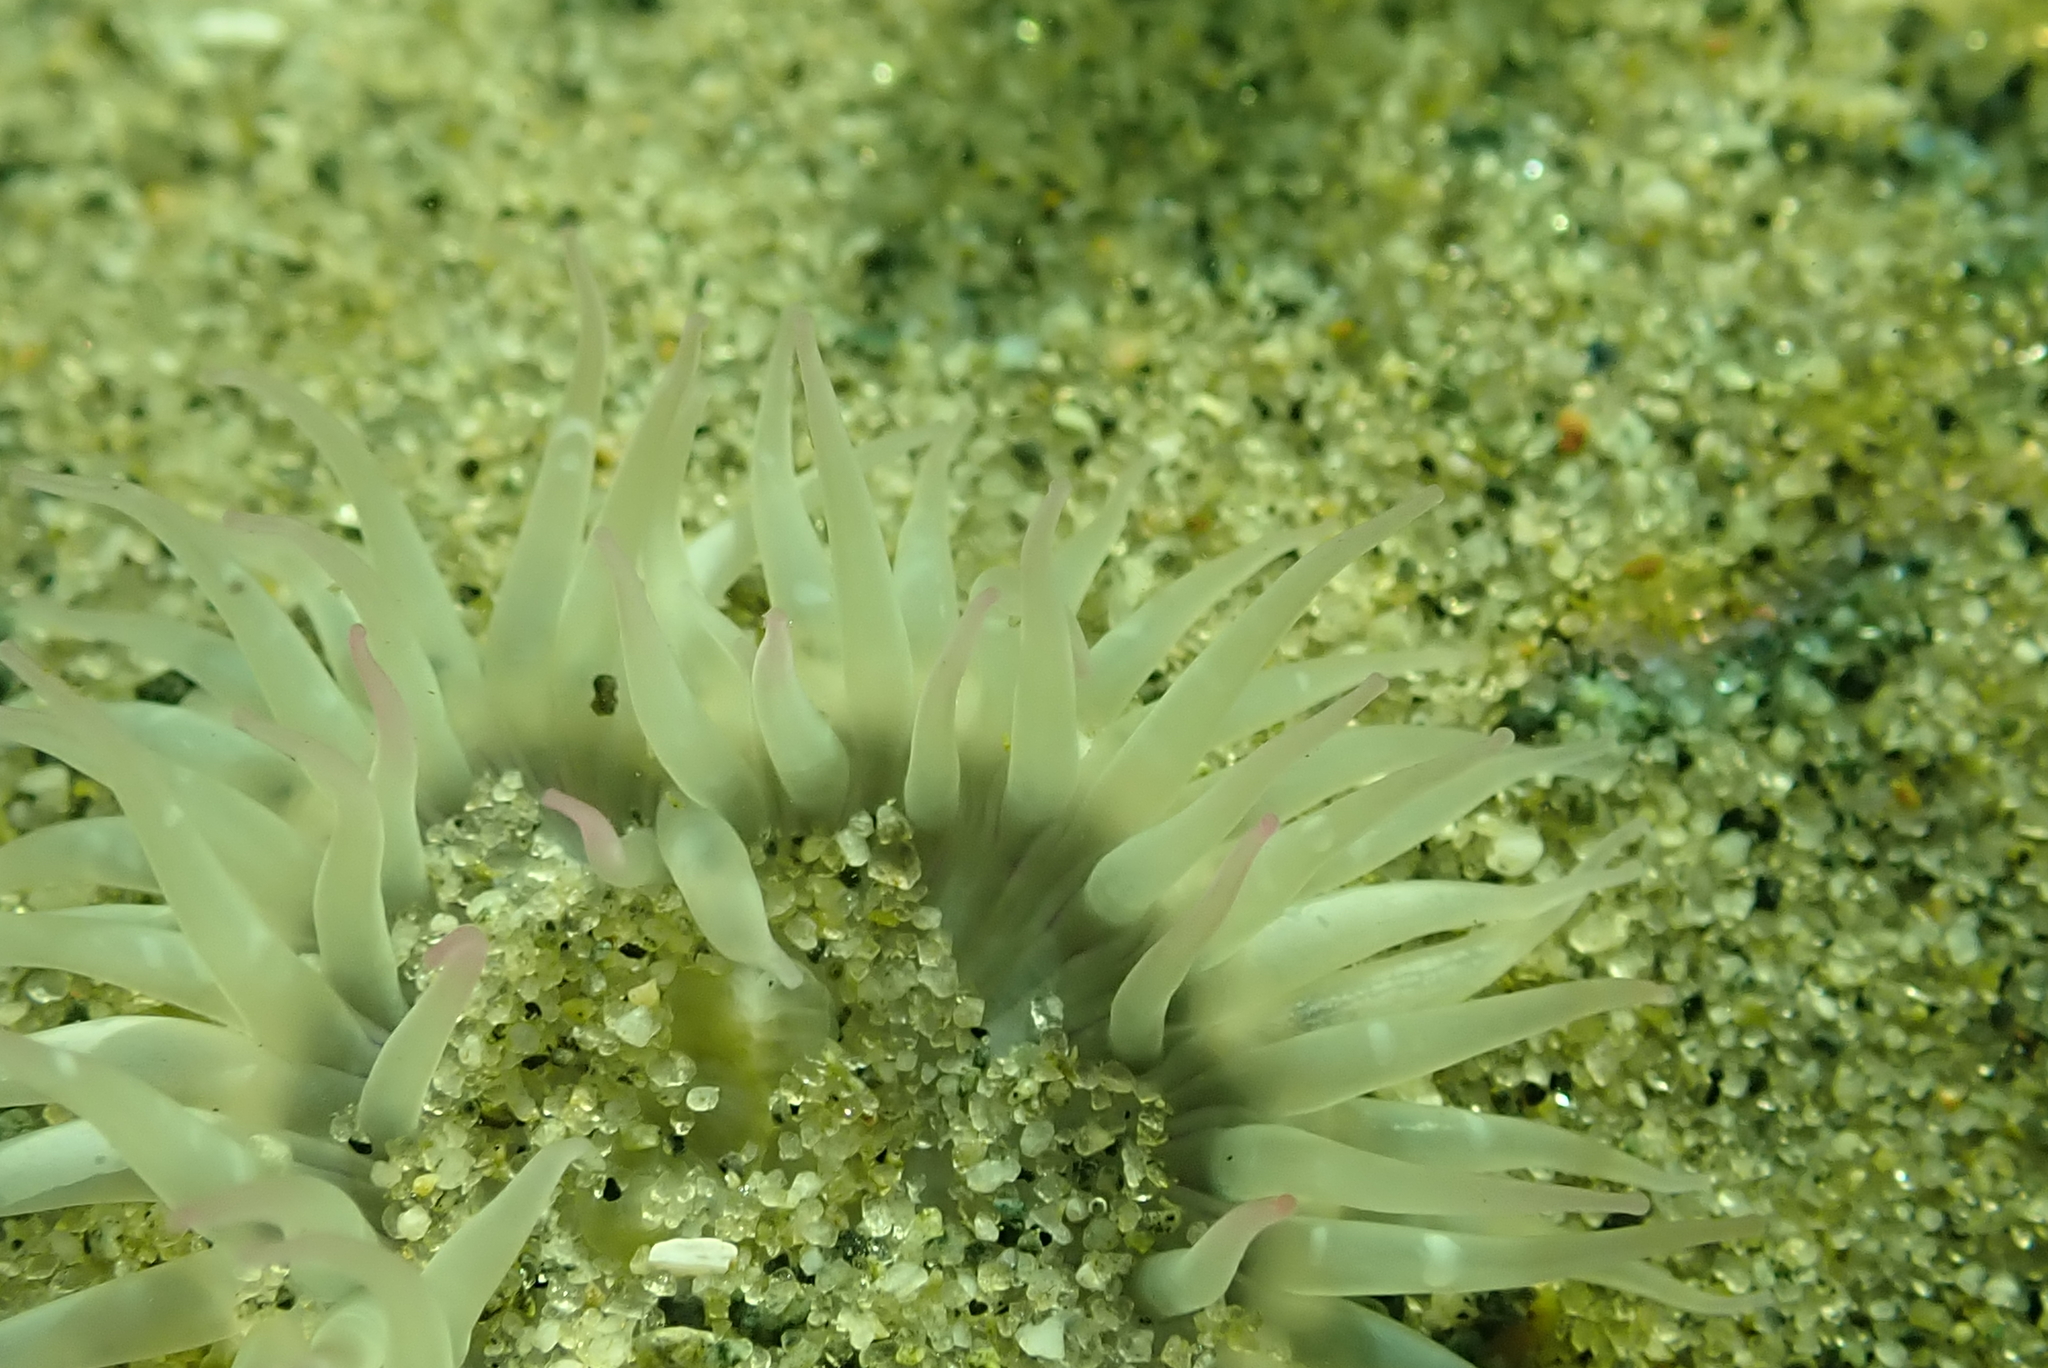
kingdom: Animalia
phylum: Cnidaria
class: Anthozoa
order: Actiniaria
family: Actiniidae
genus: Anthopleura
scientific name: Anthopleura elegantissima
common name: Clonal anemone
